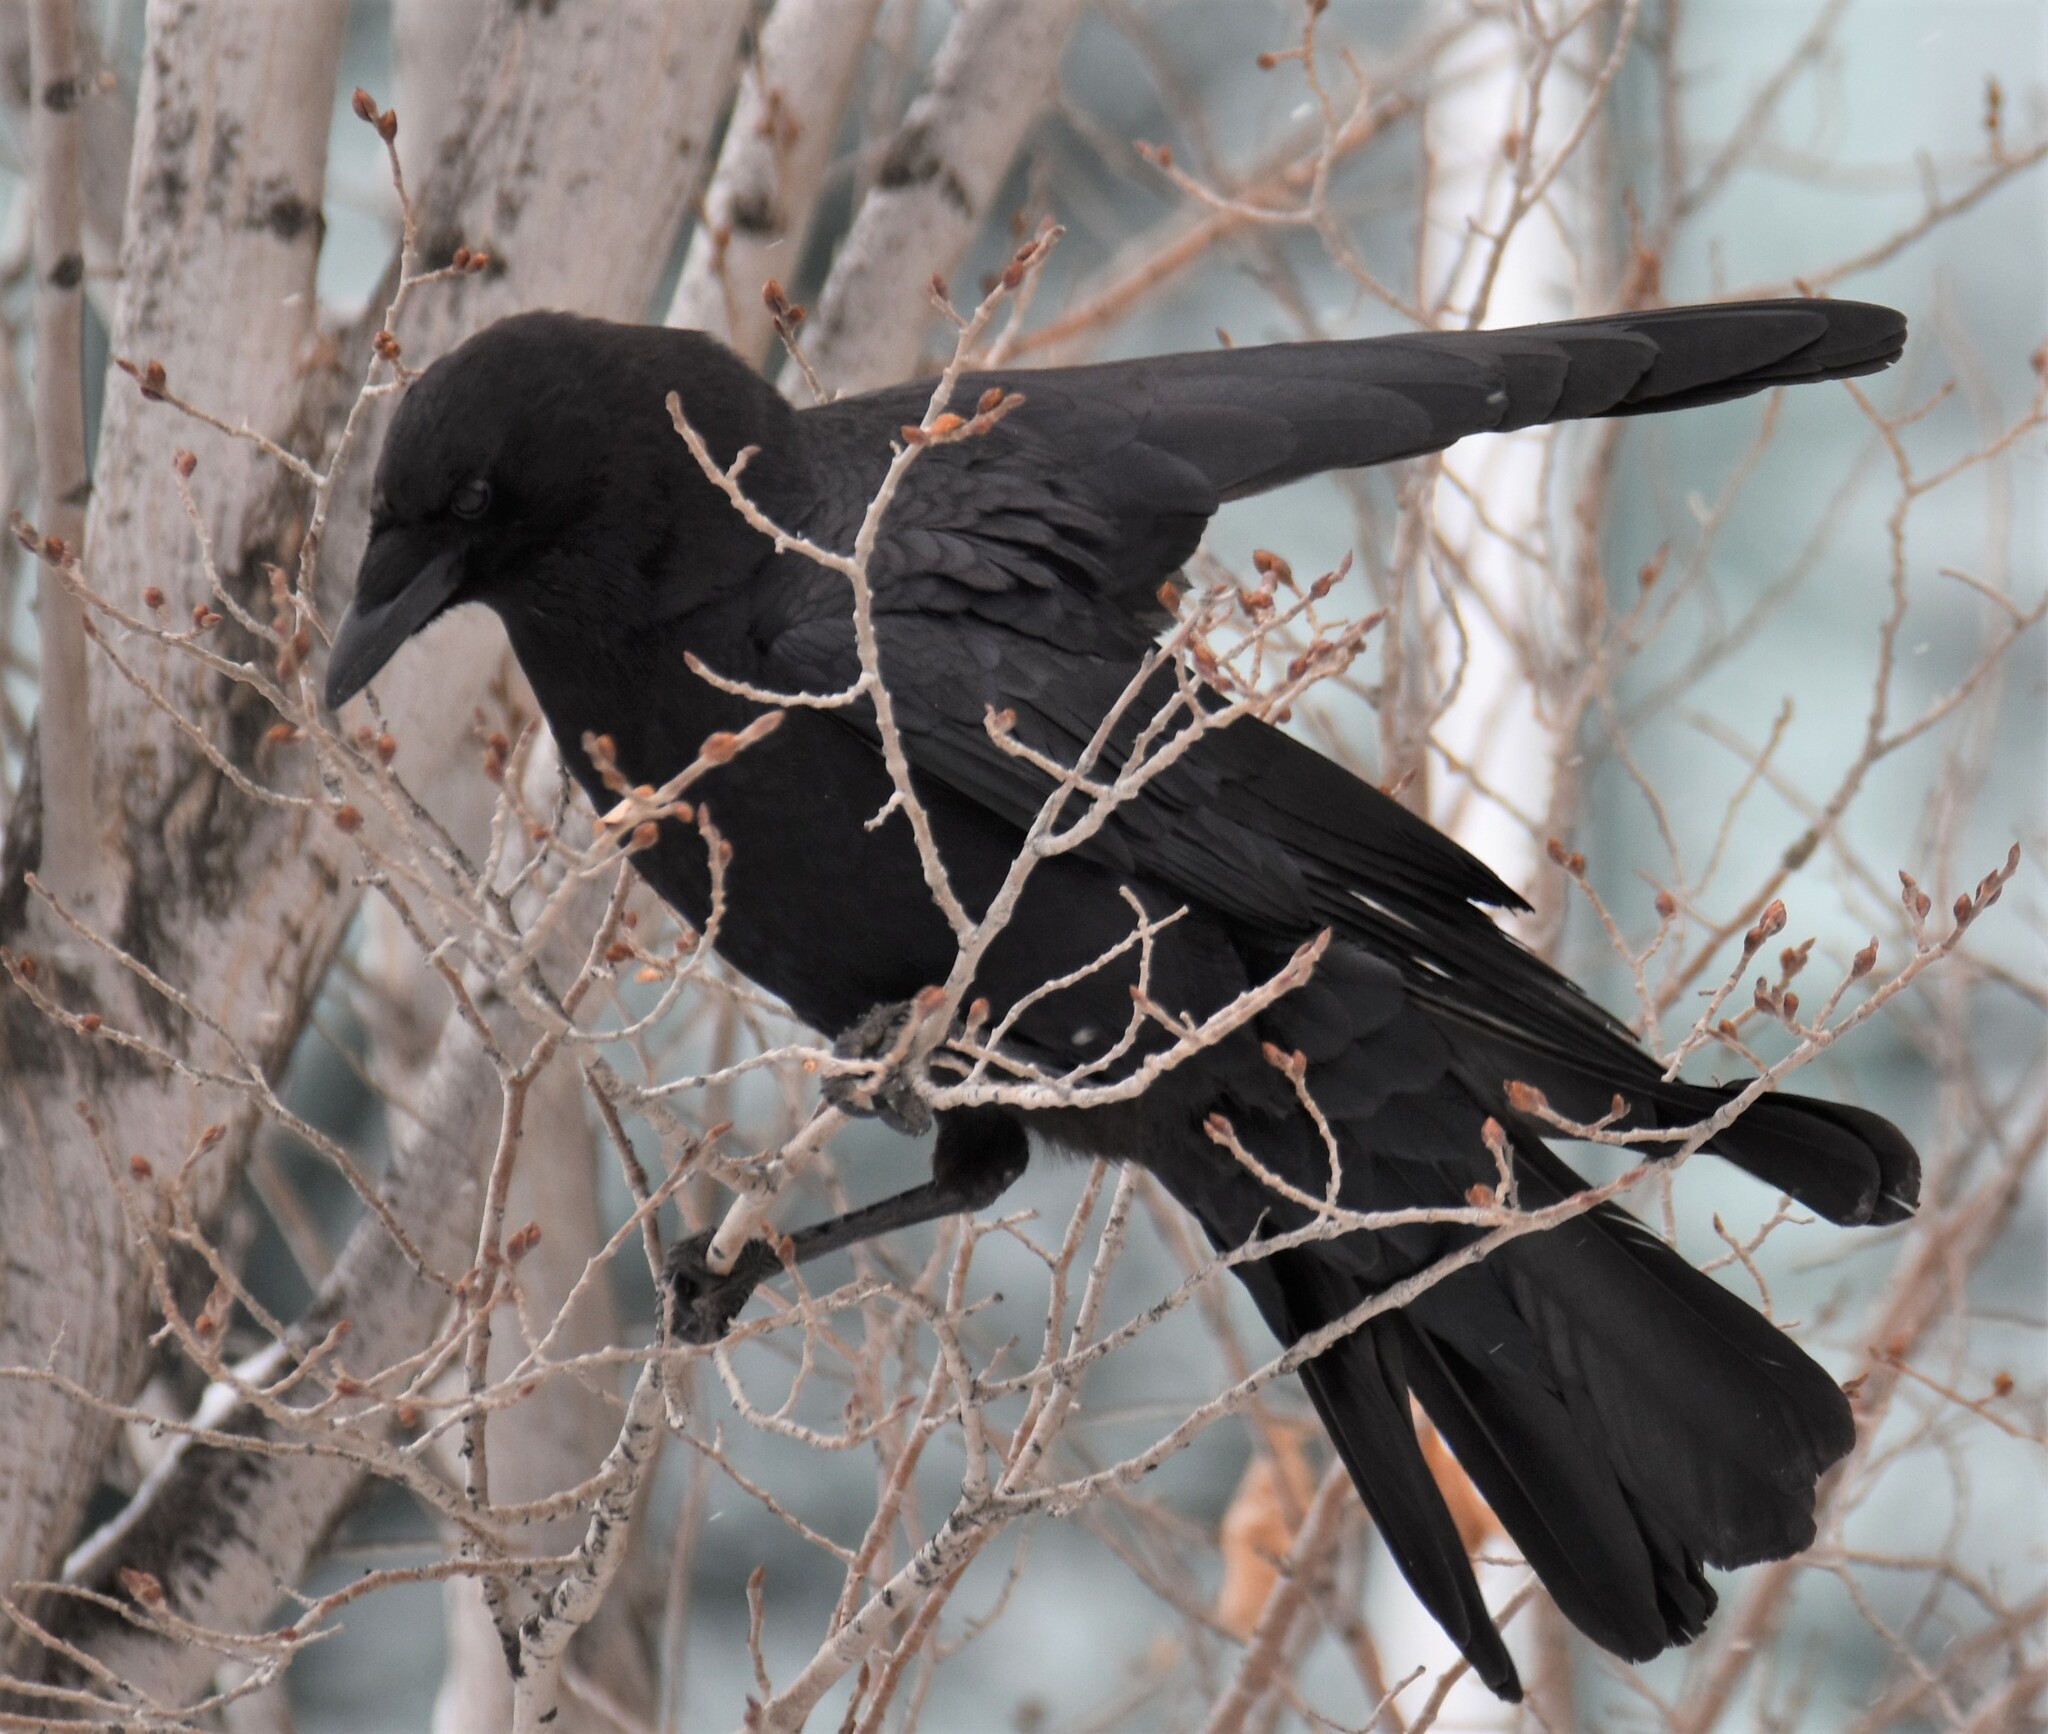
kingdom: Animalia
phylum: Chordata
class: Aves
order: Passeriformes
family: Corvidae
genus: Corvus
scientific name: Corvus brachyrhynchos
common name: American crow
